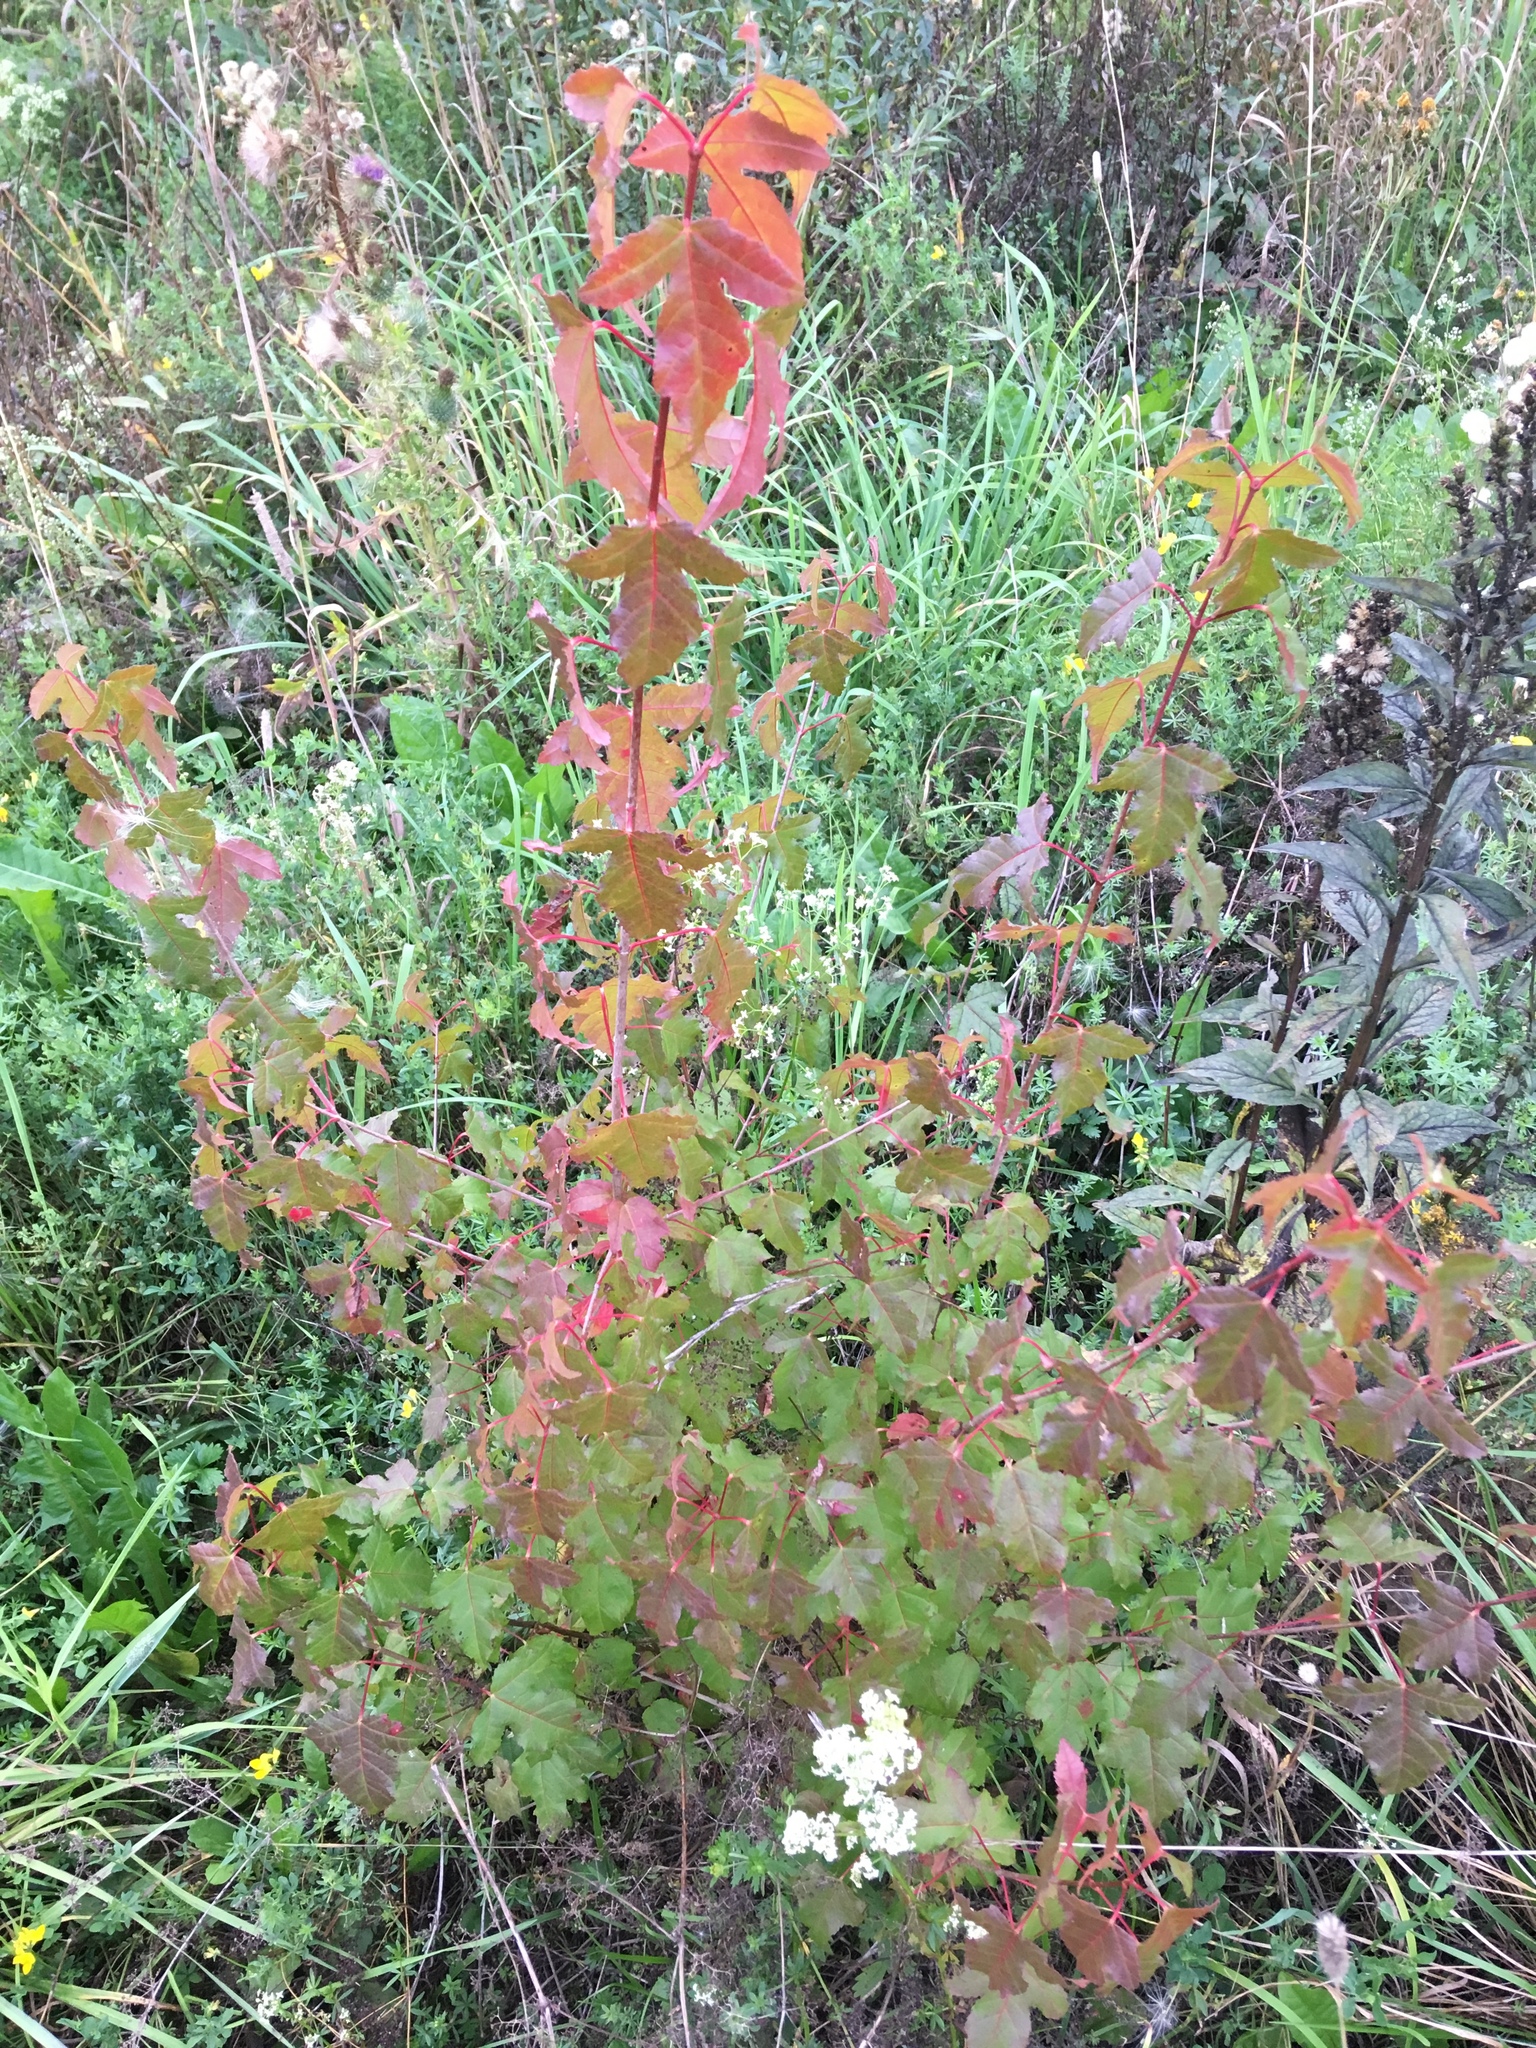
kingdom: Plantae
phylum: Tracheophyta
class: Magnoliopsida
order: Sapindales
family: Sapindaceae
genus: Acer
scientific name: Acer tataricum
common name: Tartar maple
